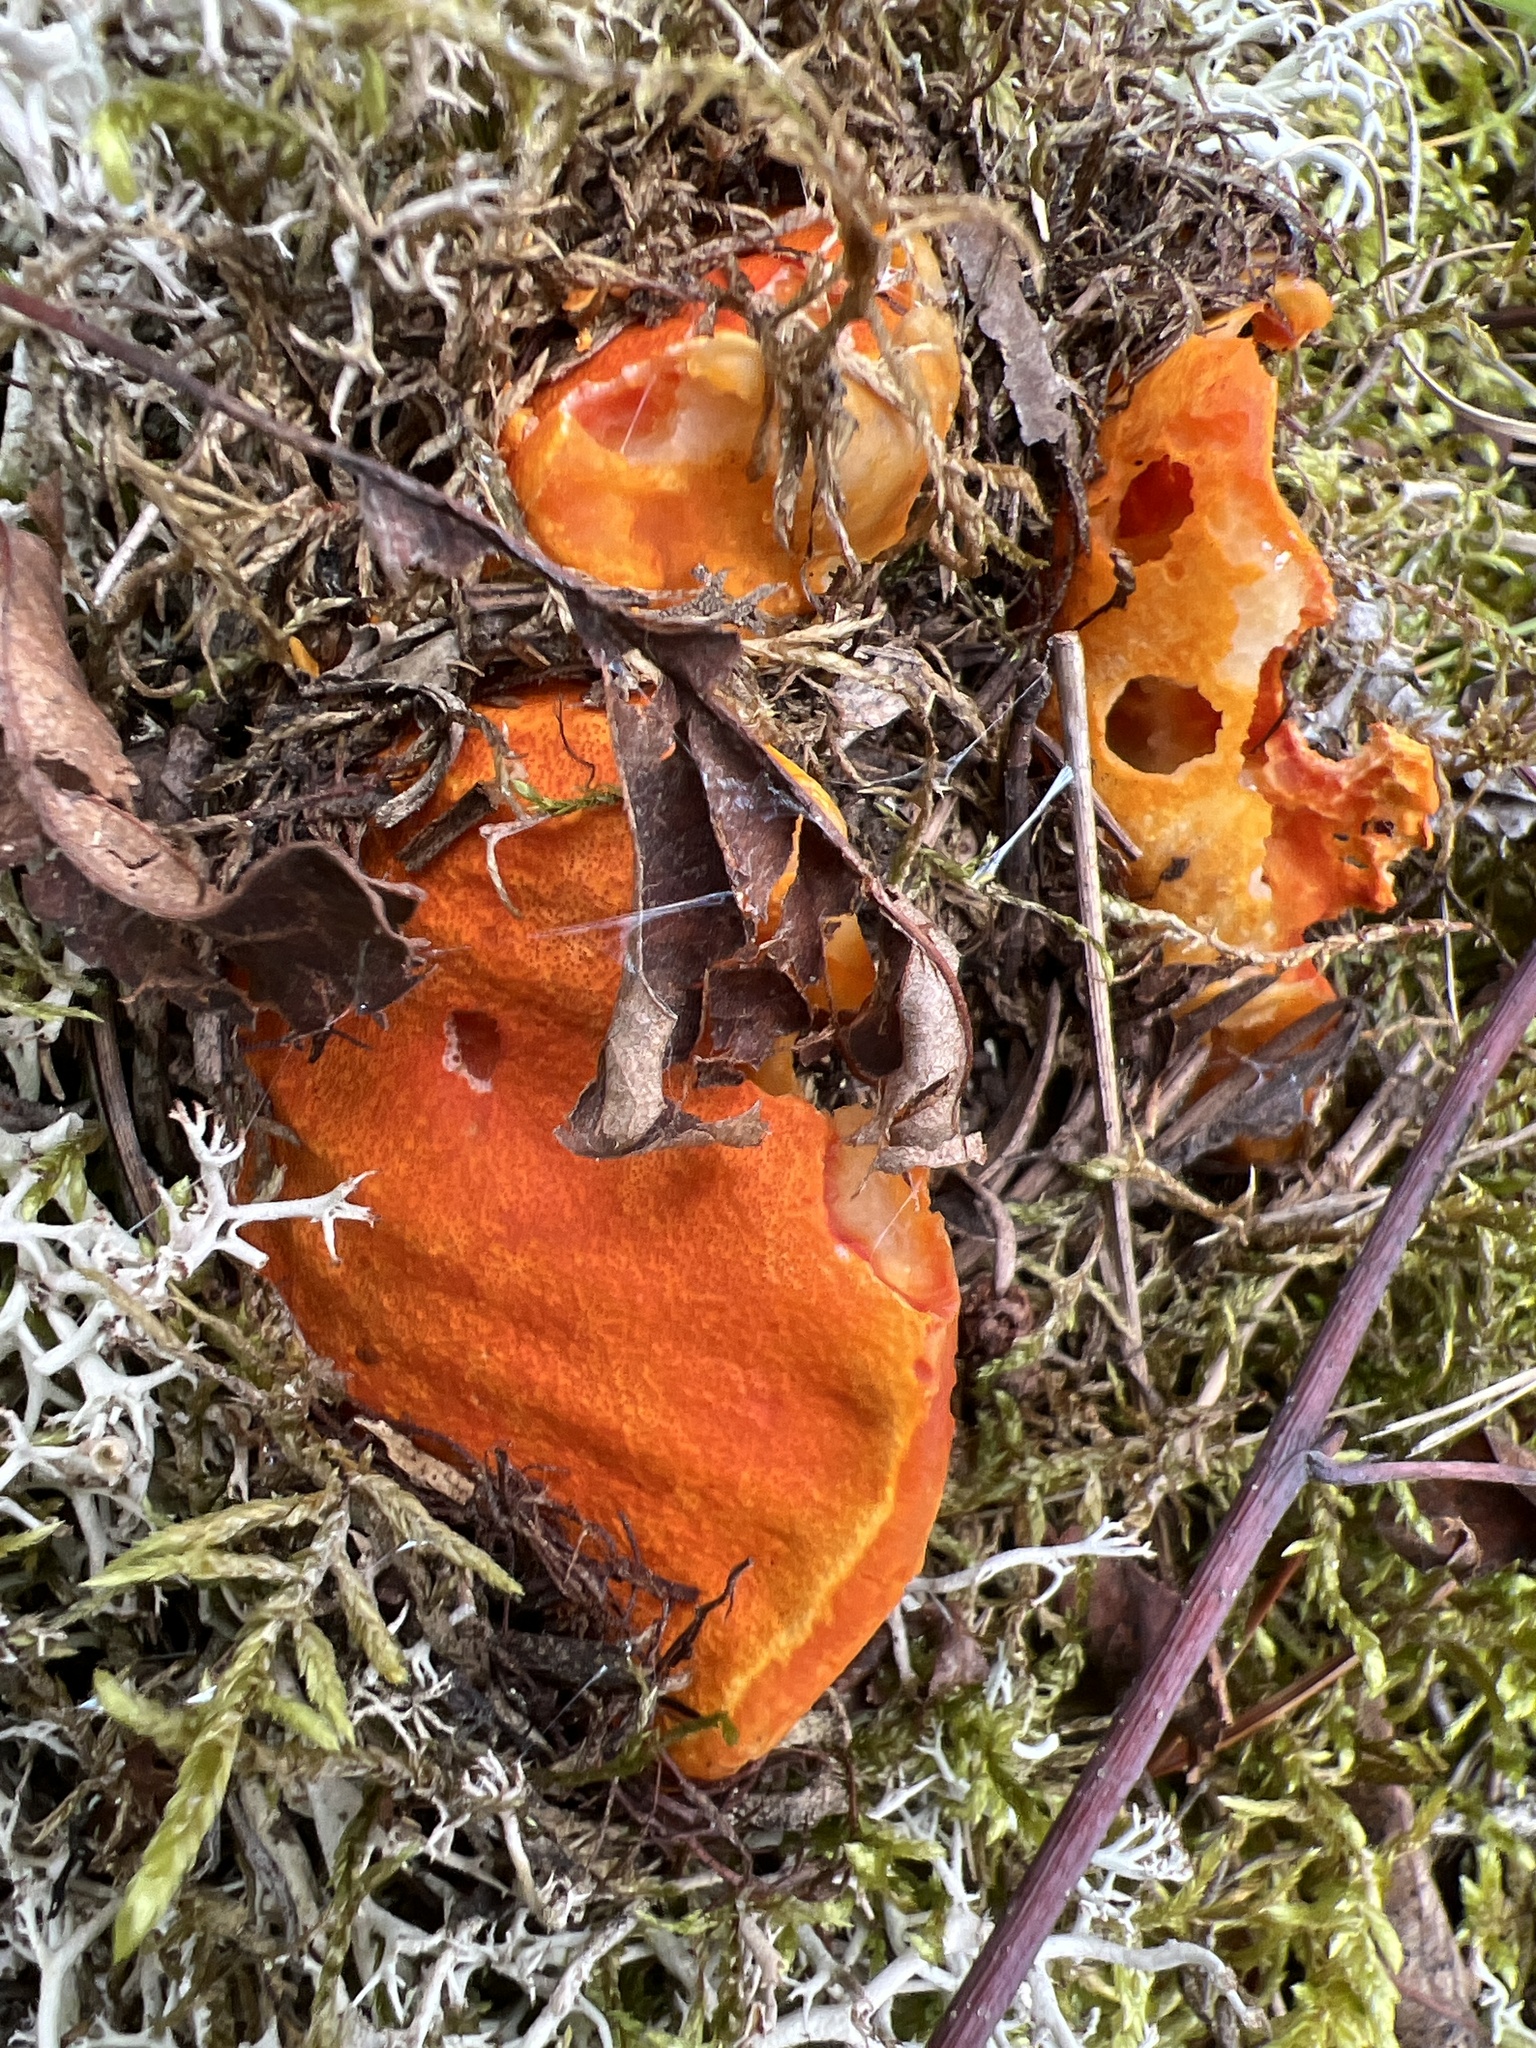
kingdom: Fungi
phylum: Ascomycota
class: Sordariomycetes
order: Hypocreales
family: Hypocreaceae
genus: Hypomyces
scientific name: Hypomyces lactifluorum
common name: Lobster mushroom
